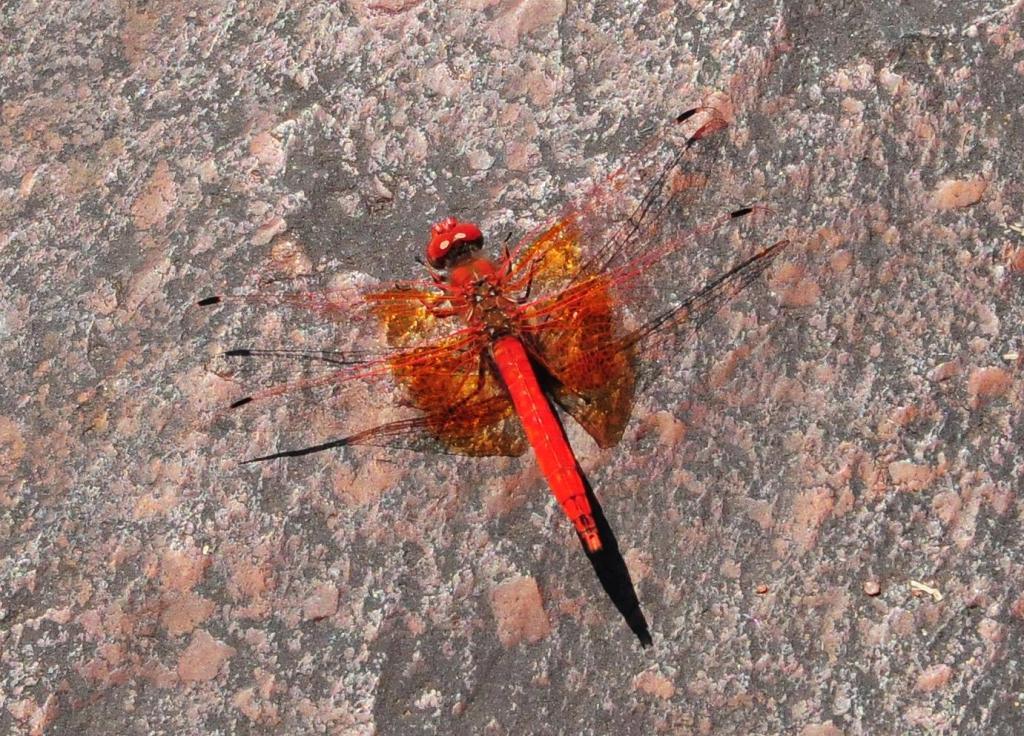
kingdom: Animalia
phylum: Arthropoda
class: Insecta
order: Odonata
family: Libellulidae
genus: Trithemis
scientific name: Trithemis kirbyi
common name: Kirby's dropwing
